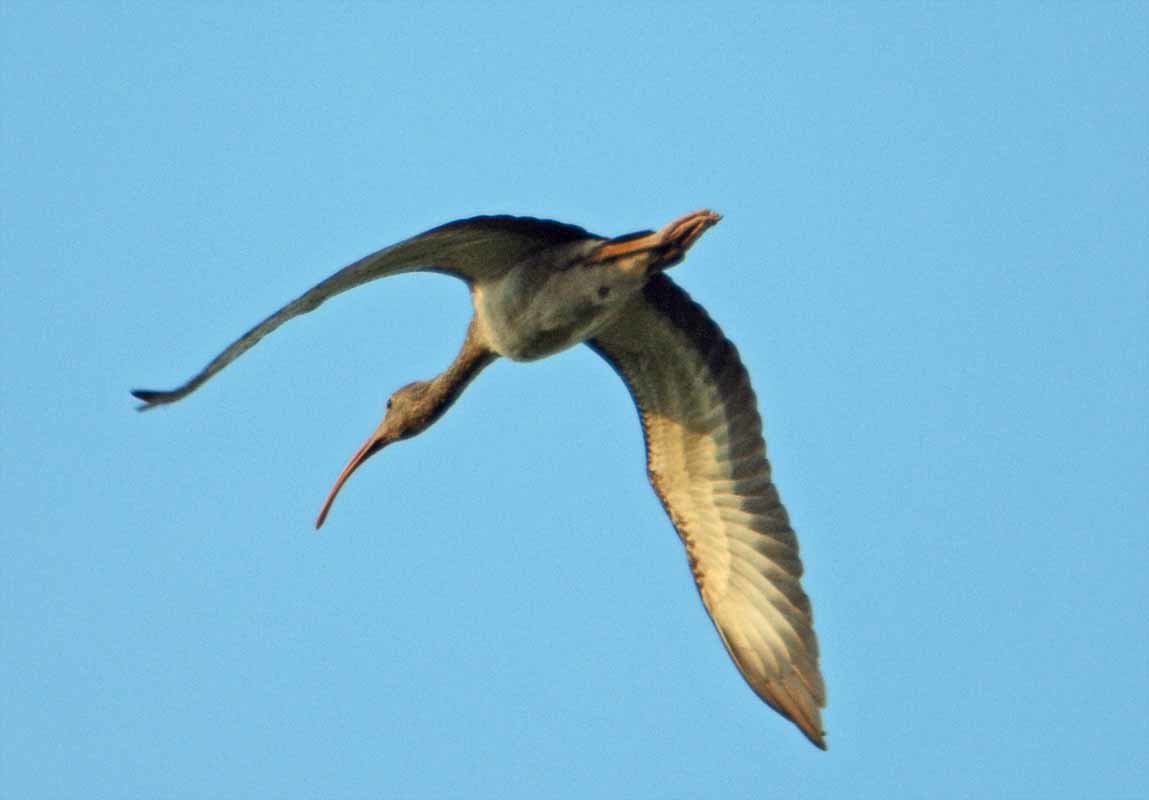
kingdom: Animalia
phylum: Chordata
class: Aves
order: Pelecaniformes
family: Threskiornithidae
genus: Eudocimus
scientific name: Eudocimus albus
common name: White ibis
